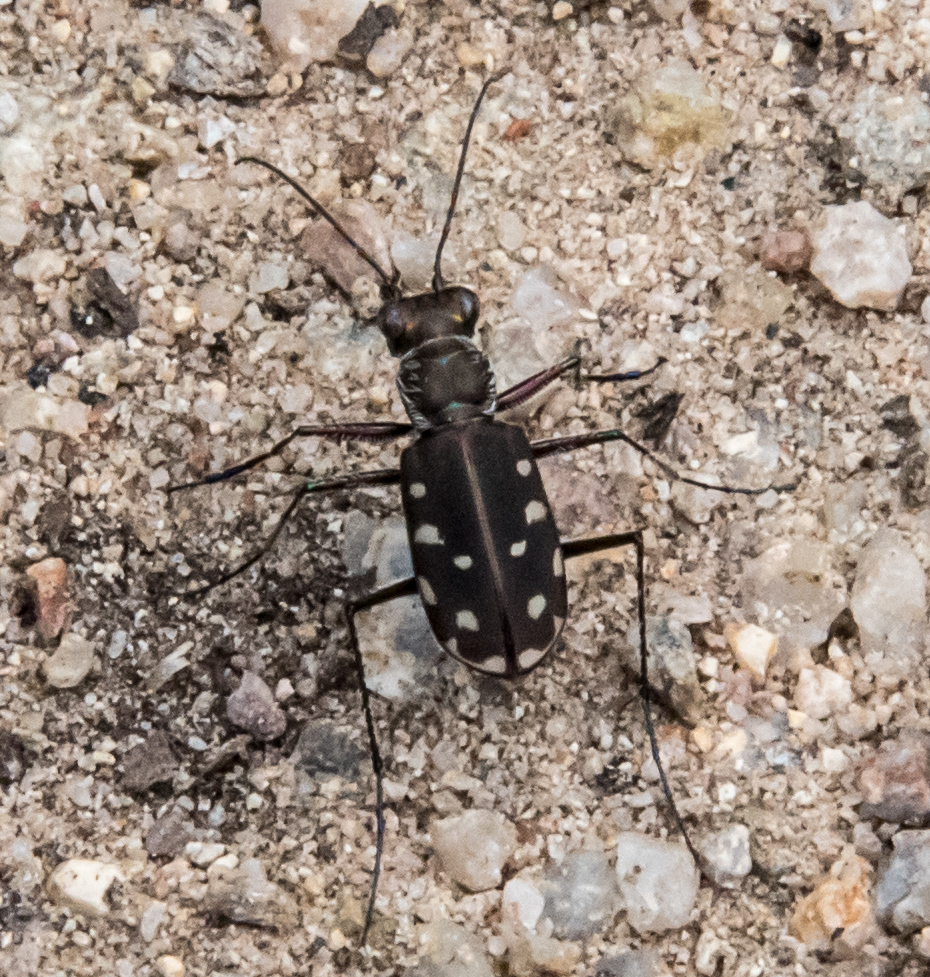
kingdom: Animalia
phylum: Arthropoda
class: Insecta
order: Coleoptera
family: Carabidae
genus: Cicindela
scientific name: Cicindela sedecimpunctata
